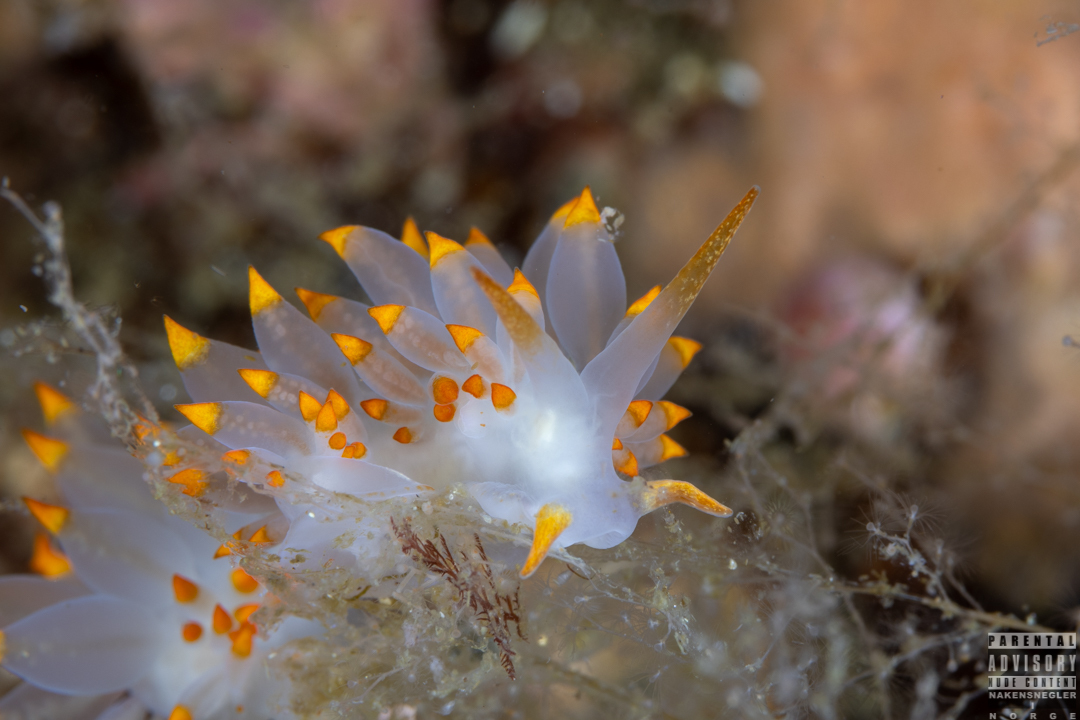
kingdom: Animalia
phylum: Mollusca
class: Gastropoda
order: Nudibranchia
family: Eubranchidae
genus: Amphorina
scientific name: Amphorina farrani
